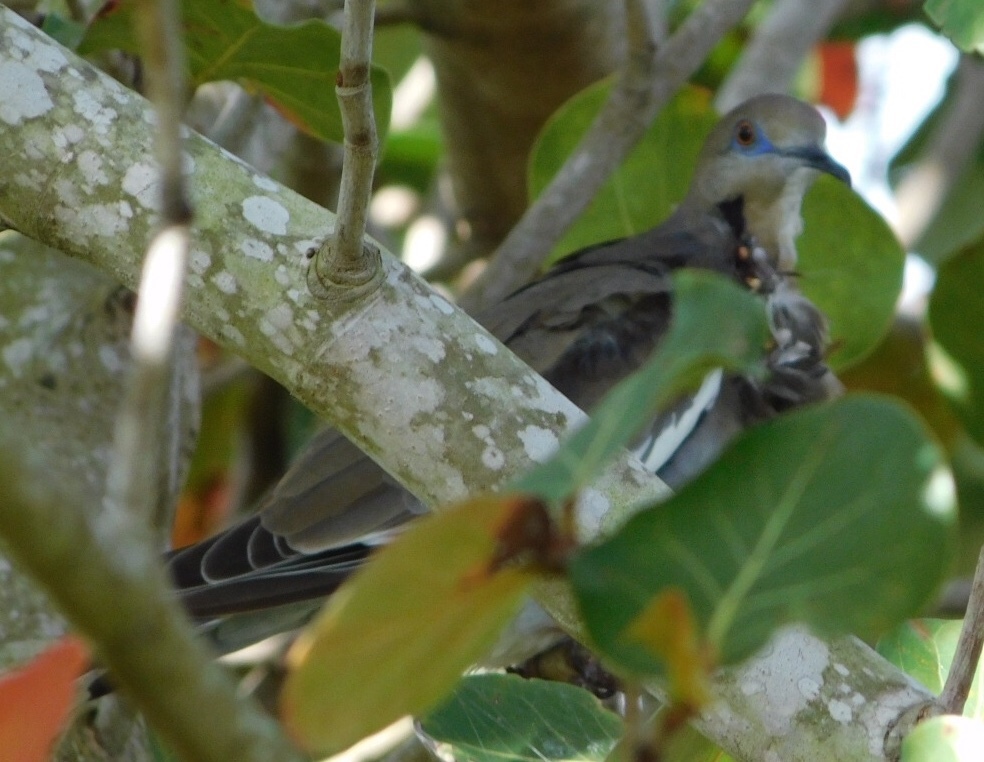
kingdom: Animalia
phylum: Chordata
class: Aves
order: Columbiformes
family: Columbidae
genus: Zenaida
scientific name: Zenaida asiatica
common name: White-winged dove
